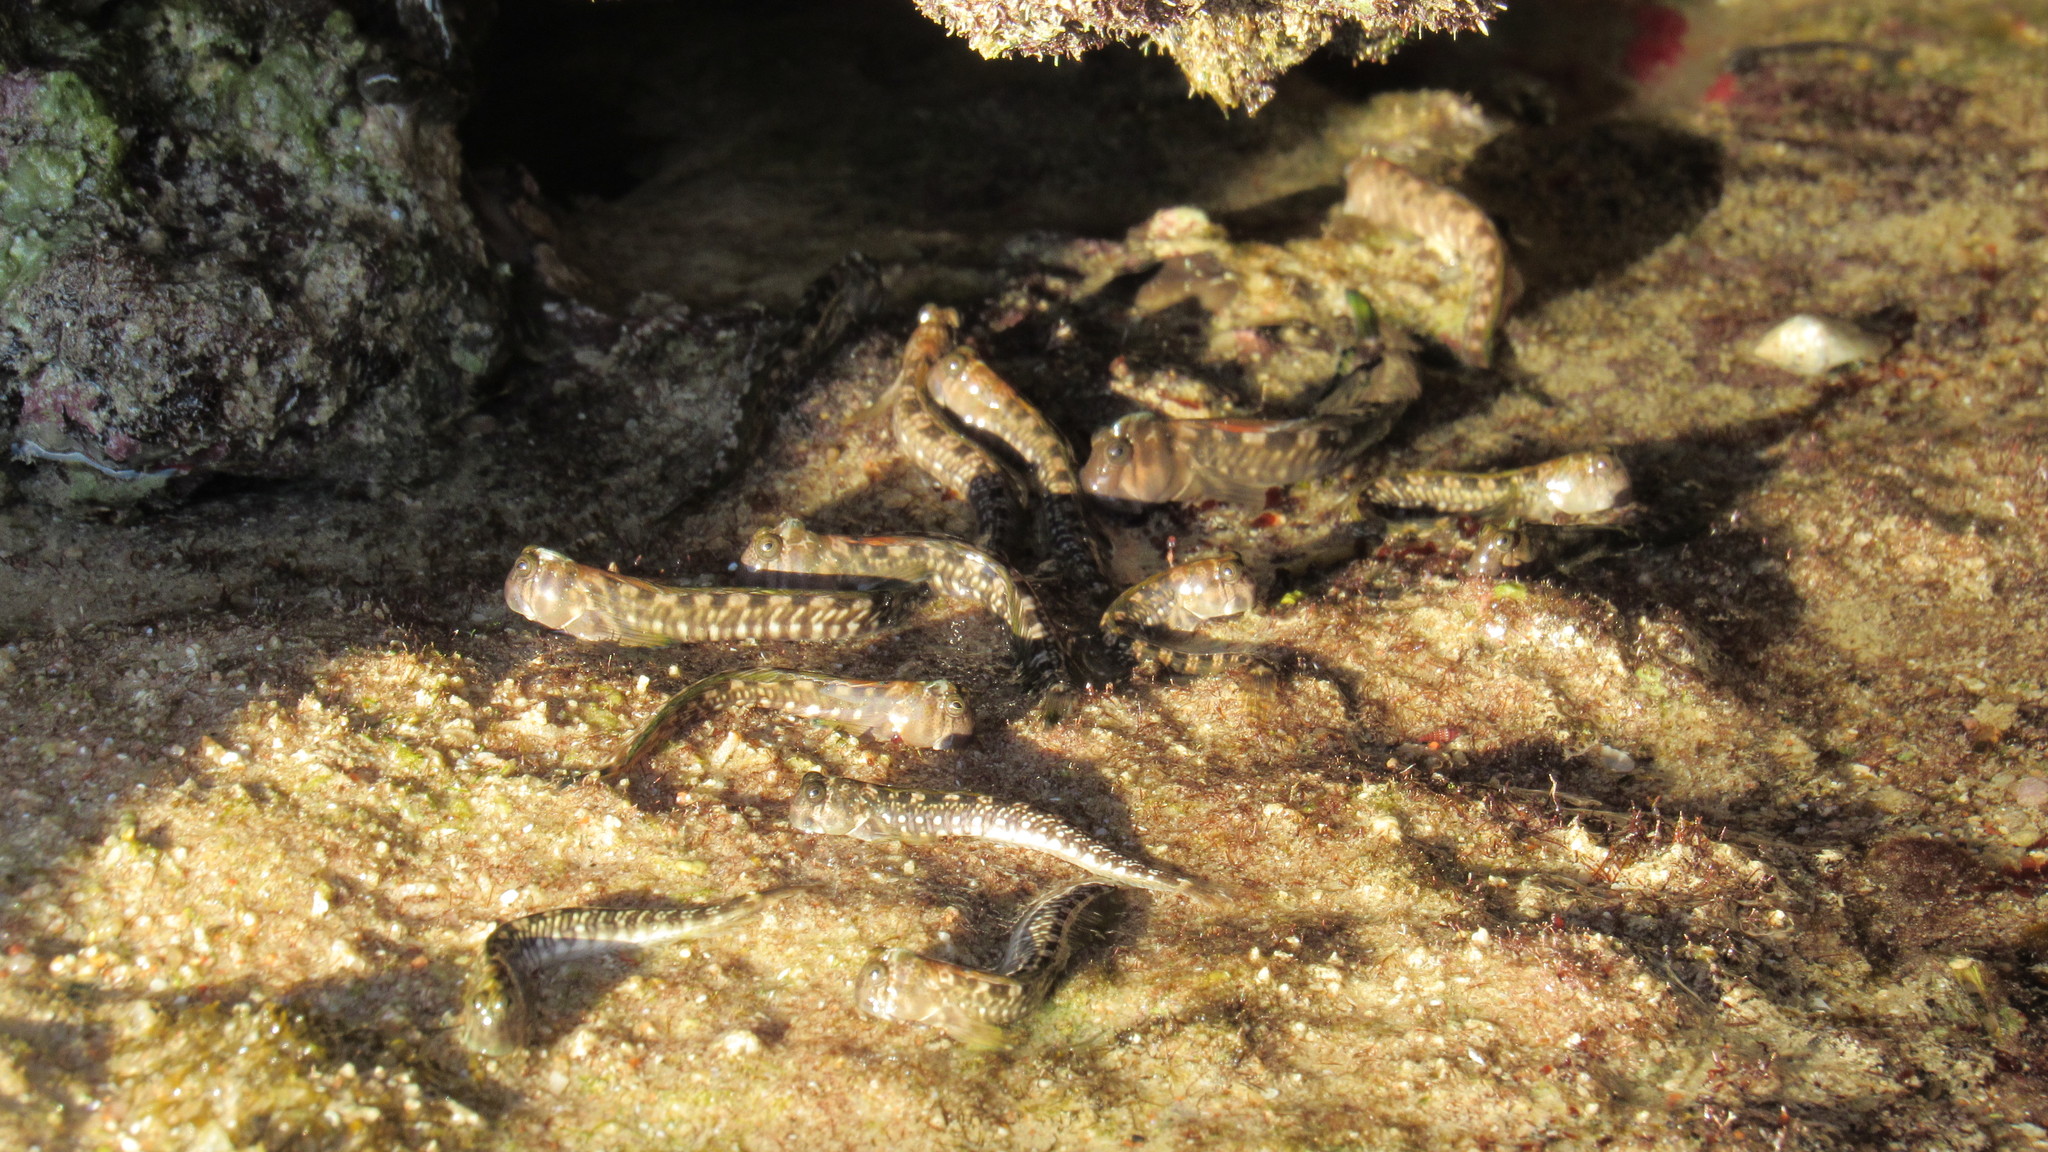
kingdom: Animalia
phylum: Chordata
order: Perciformes
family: Blenniidae
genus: Alticus
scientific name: Alticus magnusi
